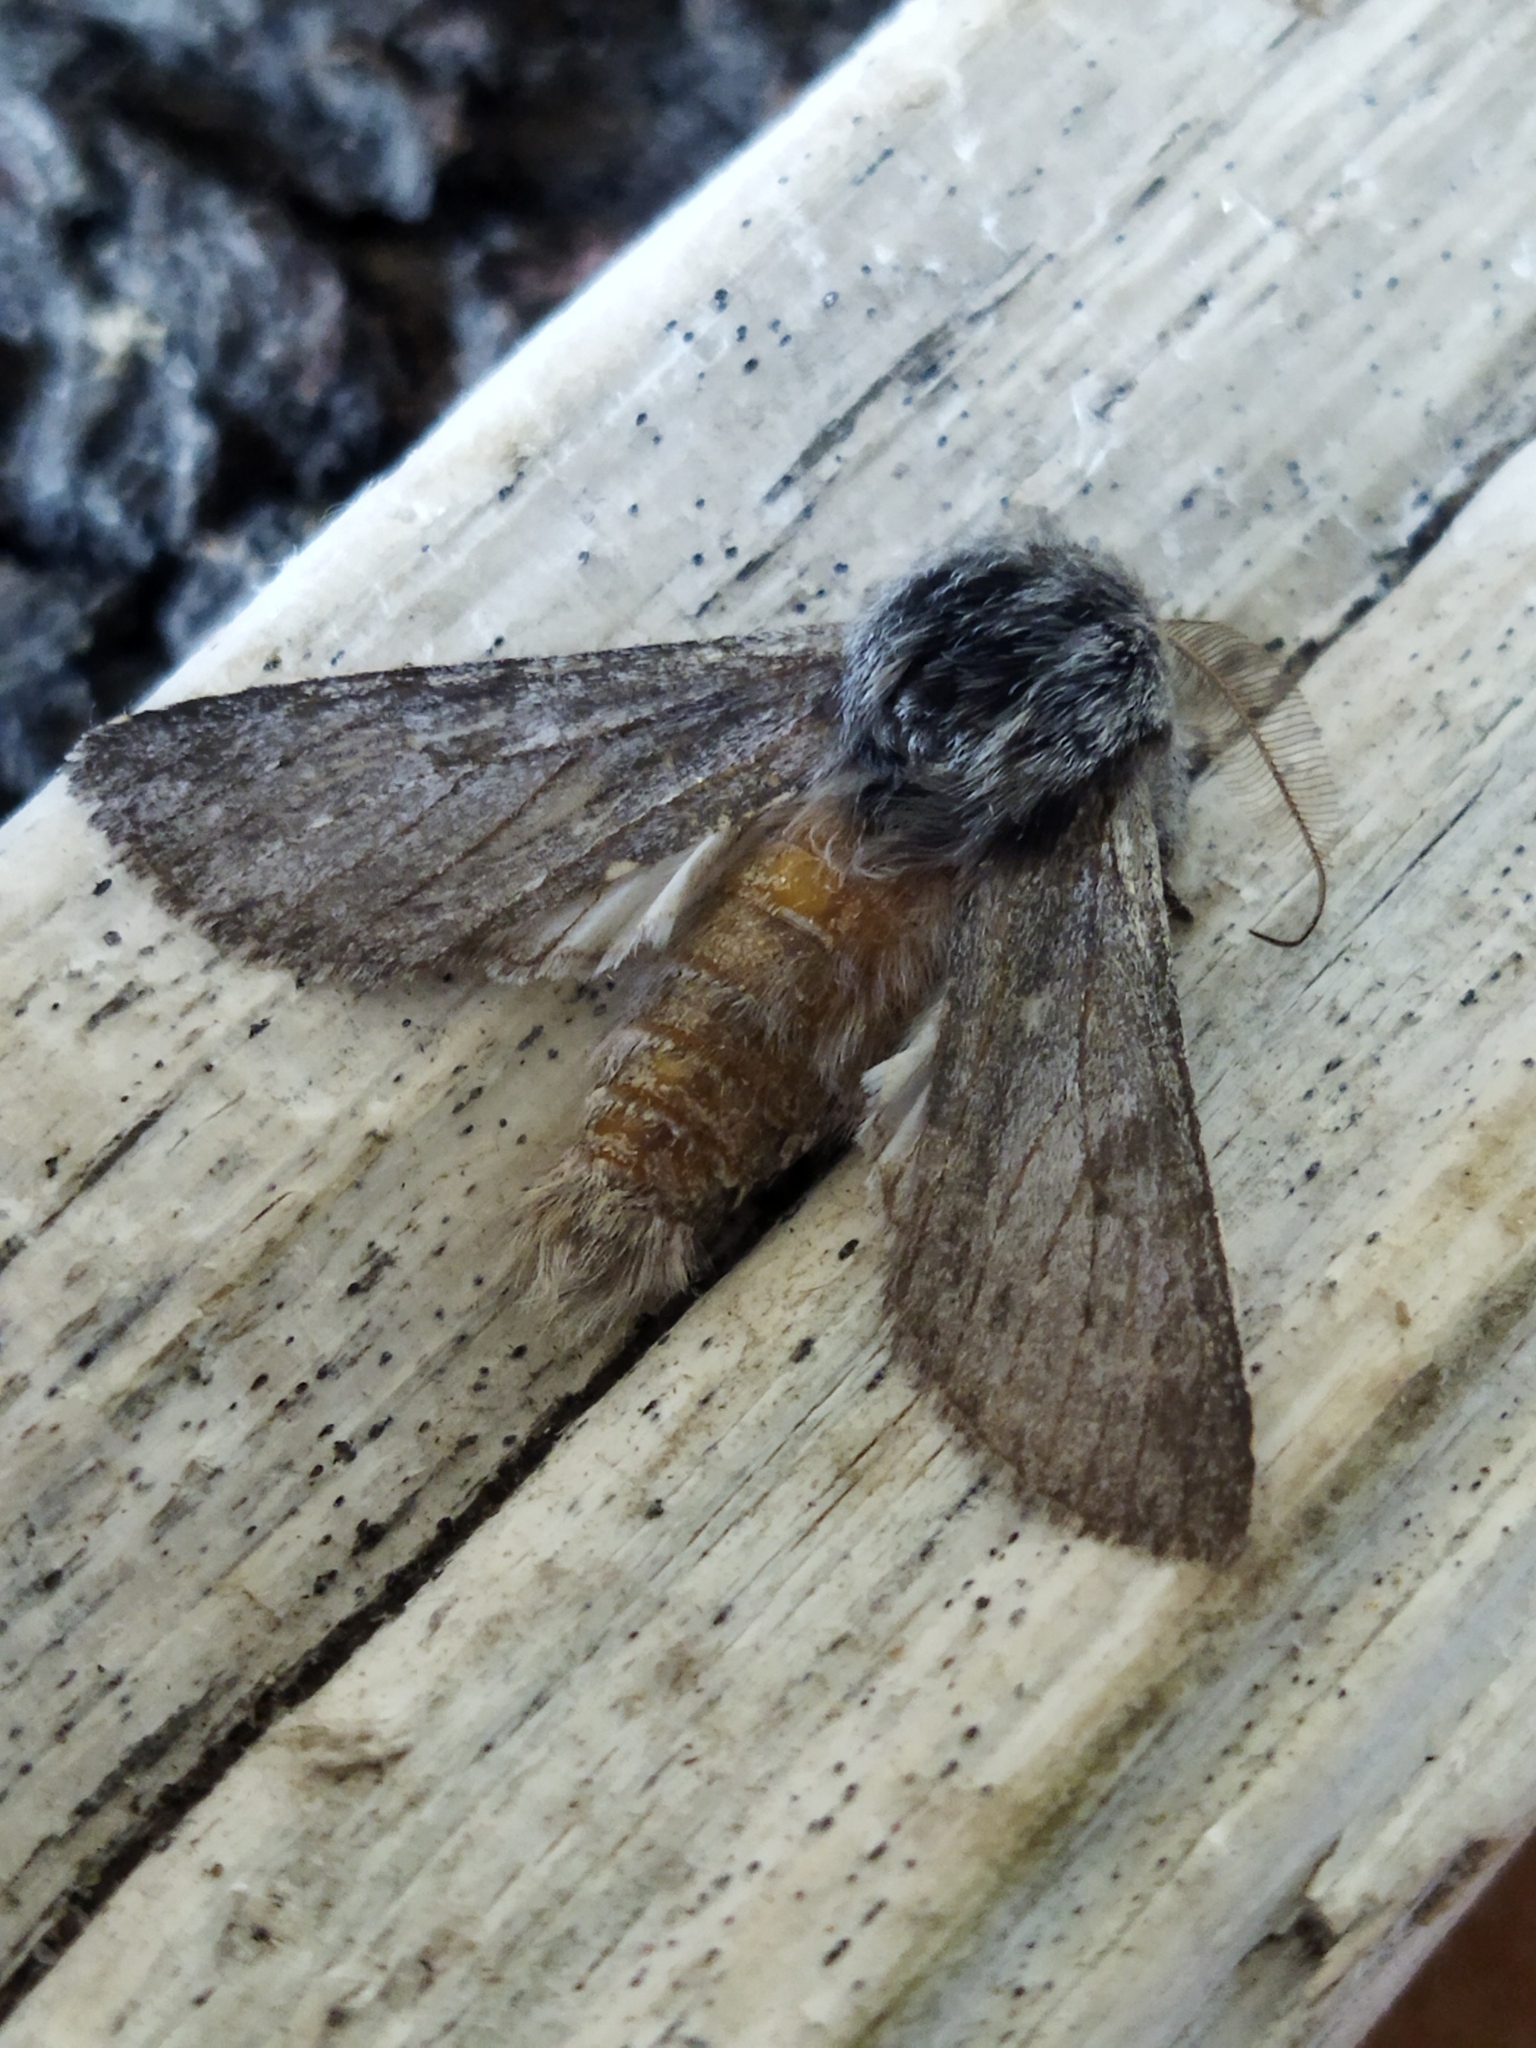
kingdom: Animalia
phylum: Arthropoda
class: Insecta
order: Lepidoptera
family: Notodontidae
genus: Dicranura
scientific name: Dicranura ulmi
